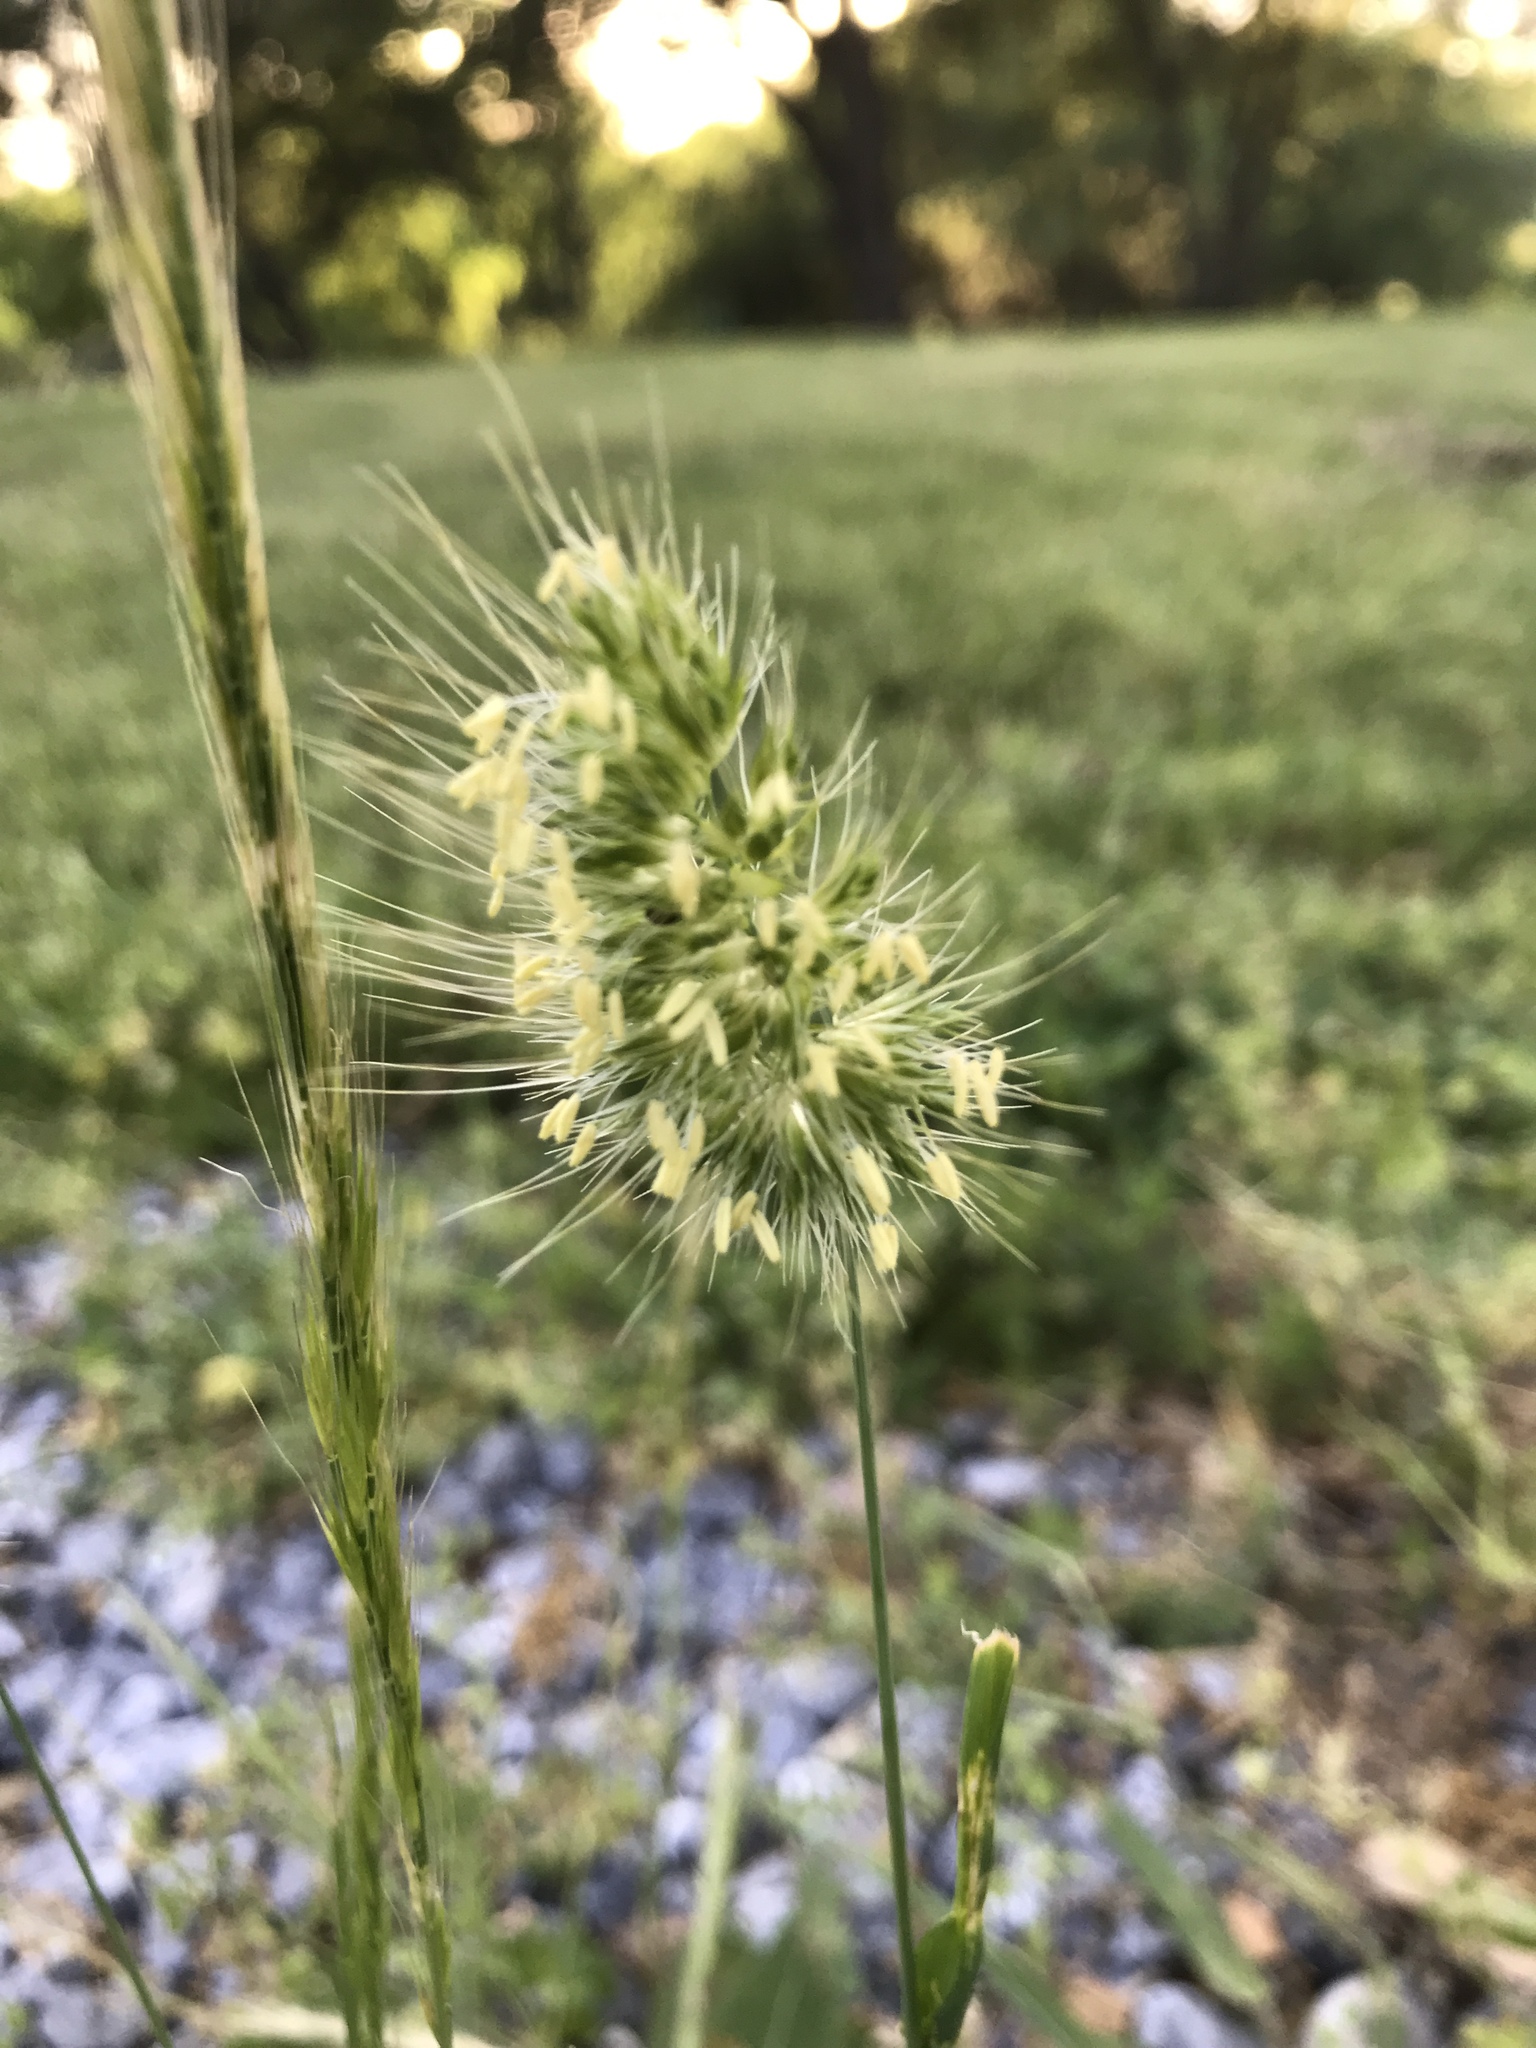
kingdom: Plantae
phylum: Tracheophyta
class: Liliopsida
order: Poales
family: Poaceae
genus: Cynosurus
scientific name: Cynosurus echinatus
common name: Rough dog's-tail
